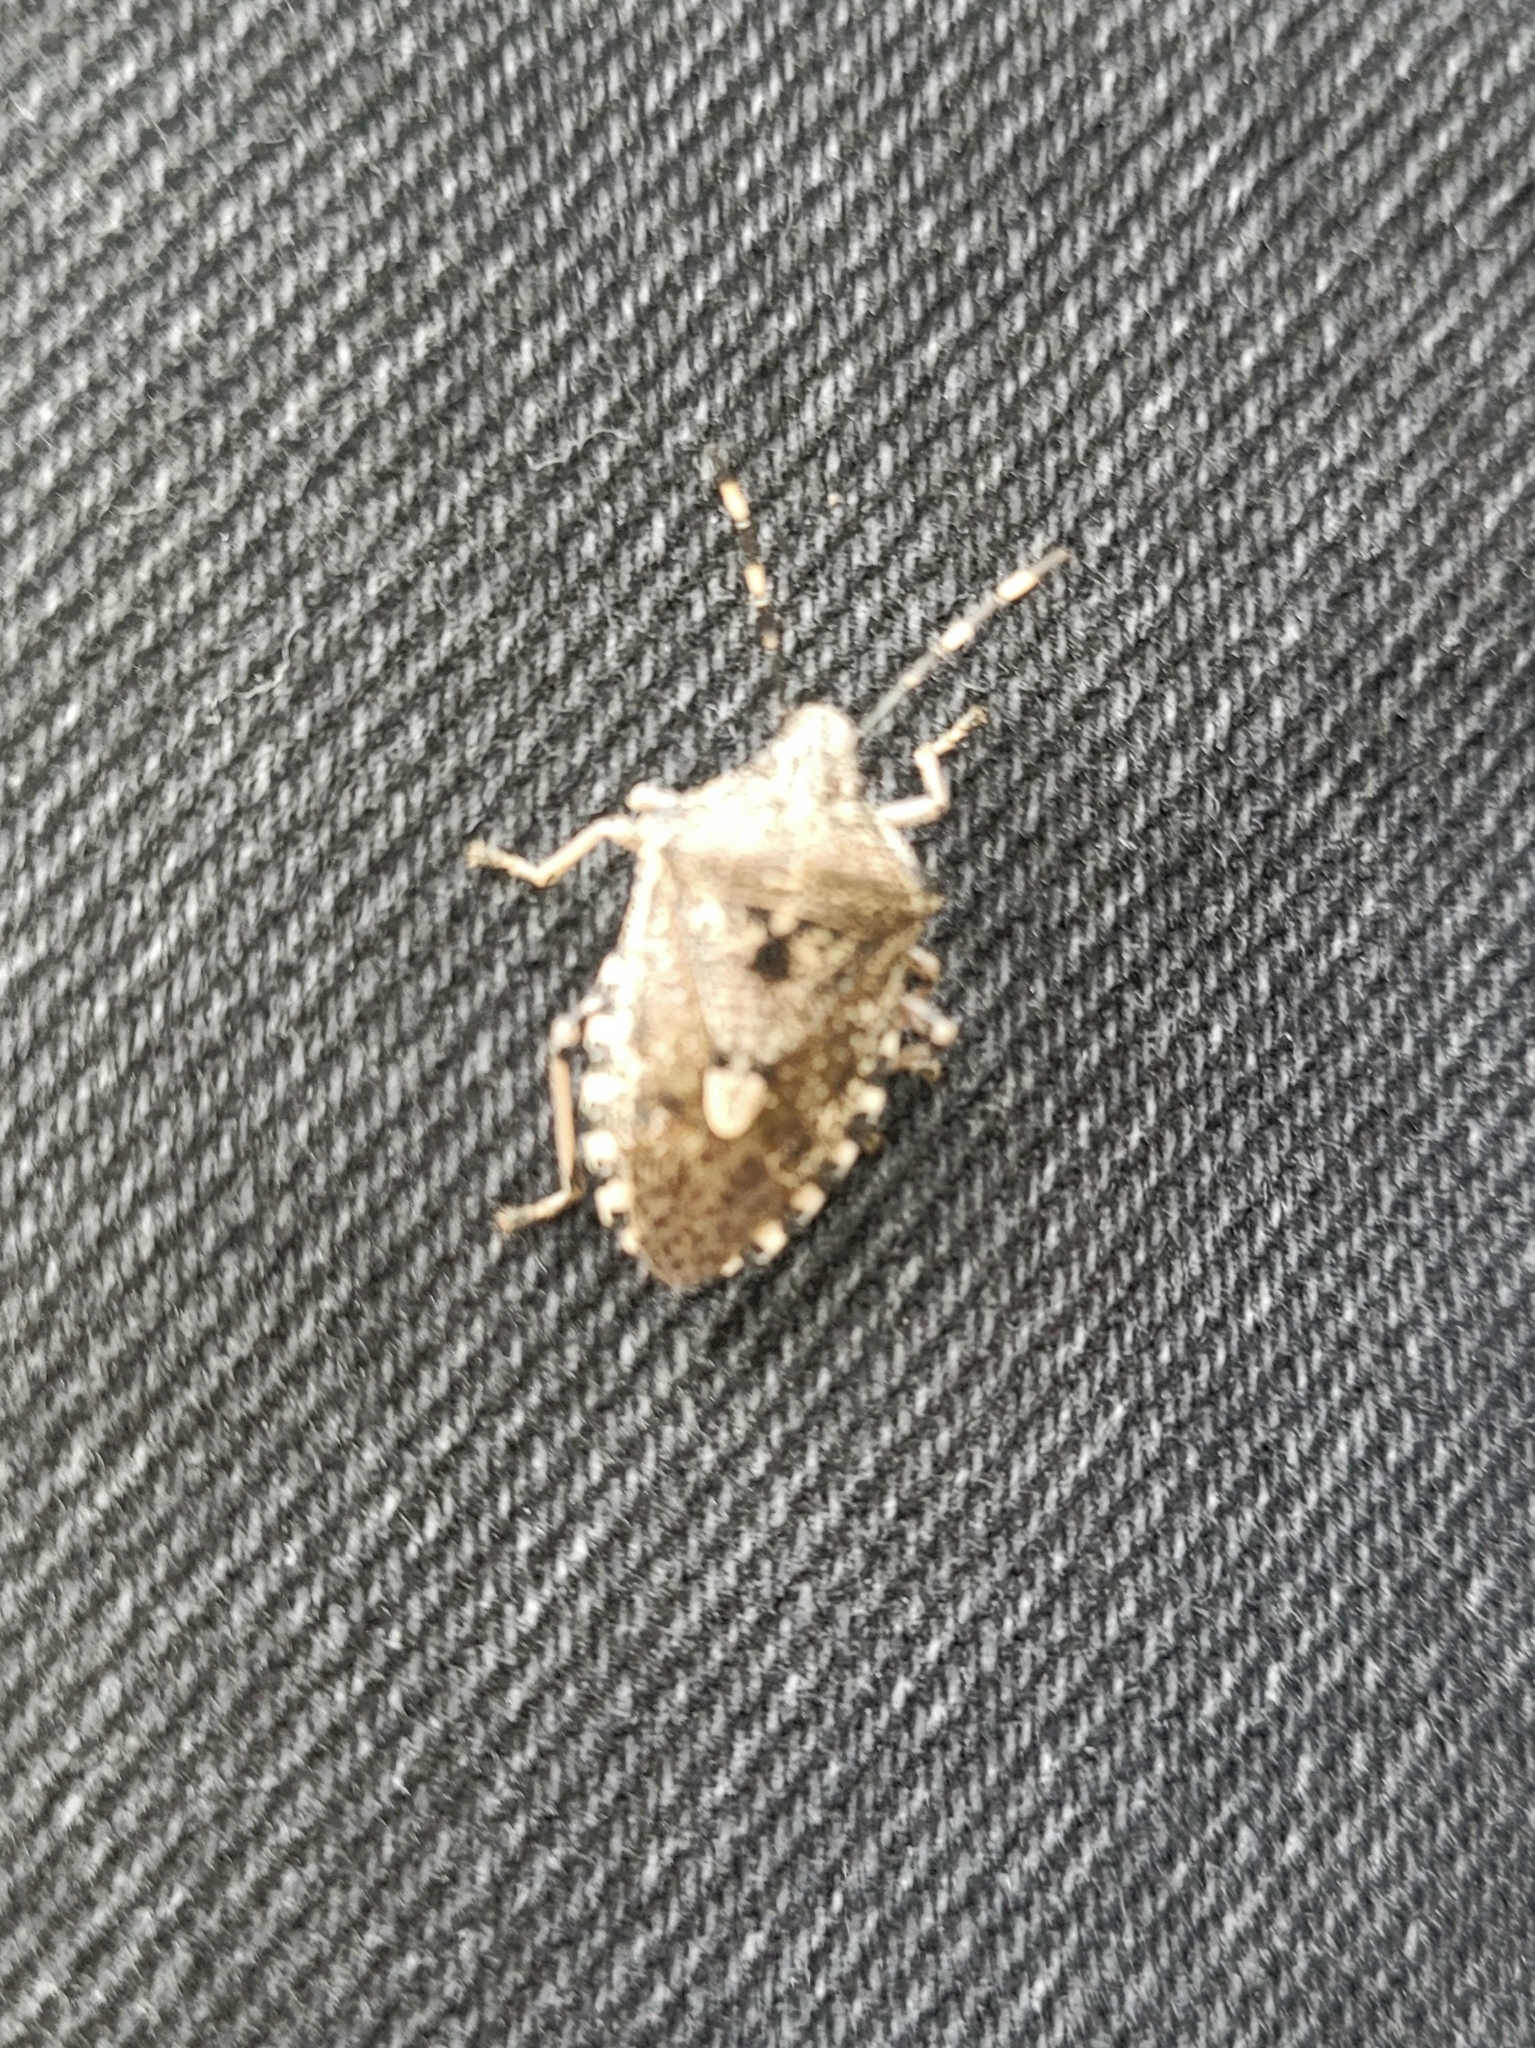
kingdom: Animalia
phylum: Arthropoda
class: Insecta
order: Hemiptera
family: Pentatomidae
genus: Rhaphigaster
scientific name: Rhaphigaster nebulosa
